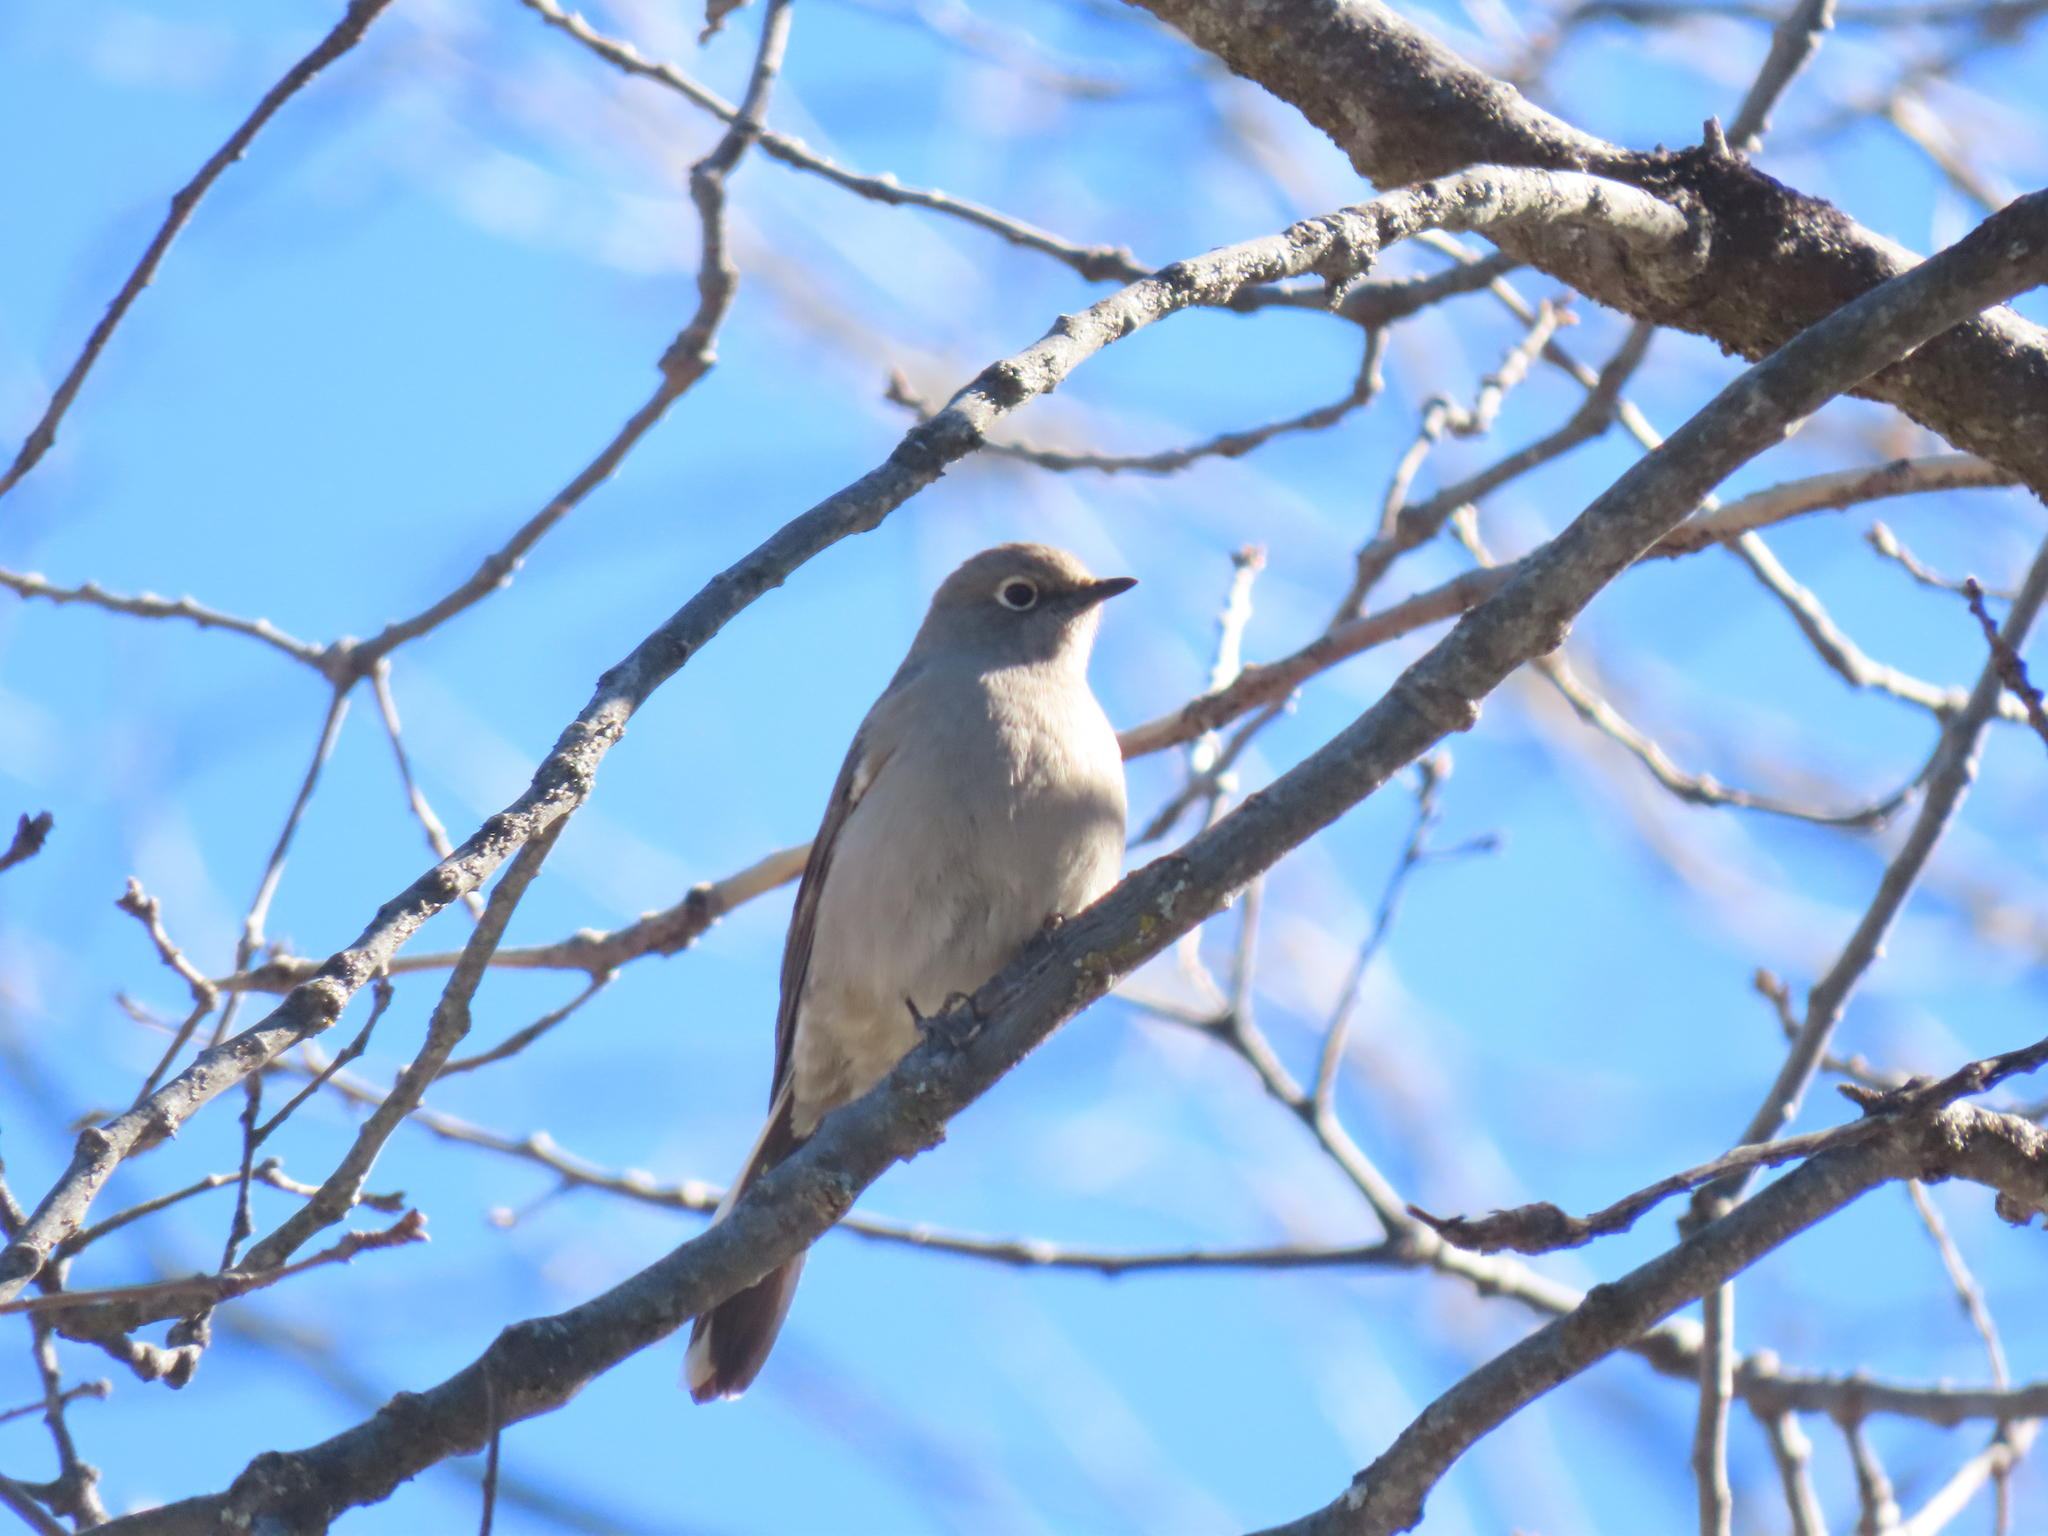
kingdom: Animalia
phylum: Chordata
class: Aves
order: Passeriformes
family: Turdidae
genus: Myadestes
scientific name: Myadestes townsendi
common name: Townsend's solitaire
